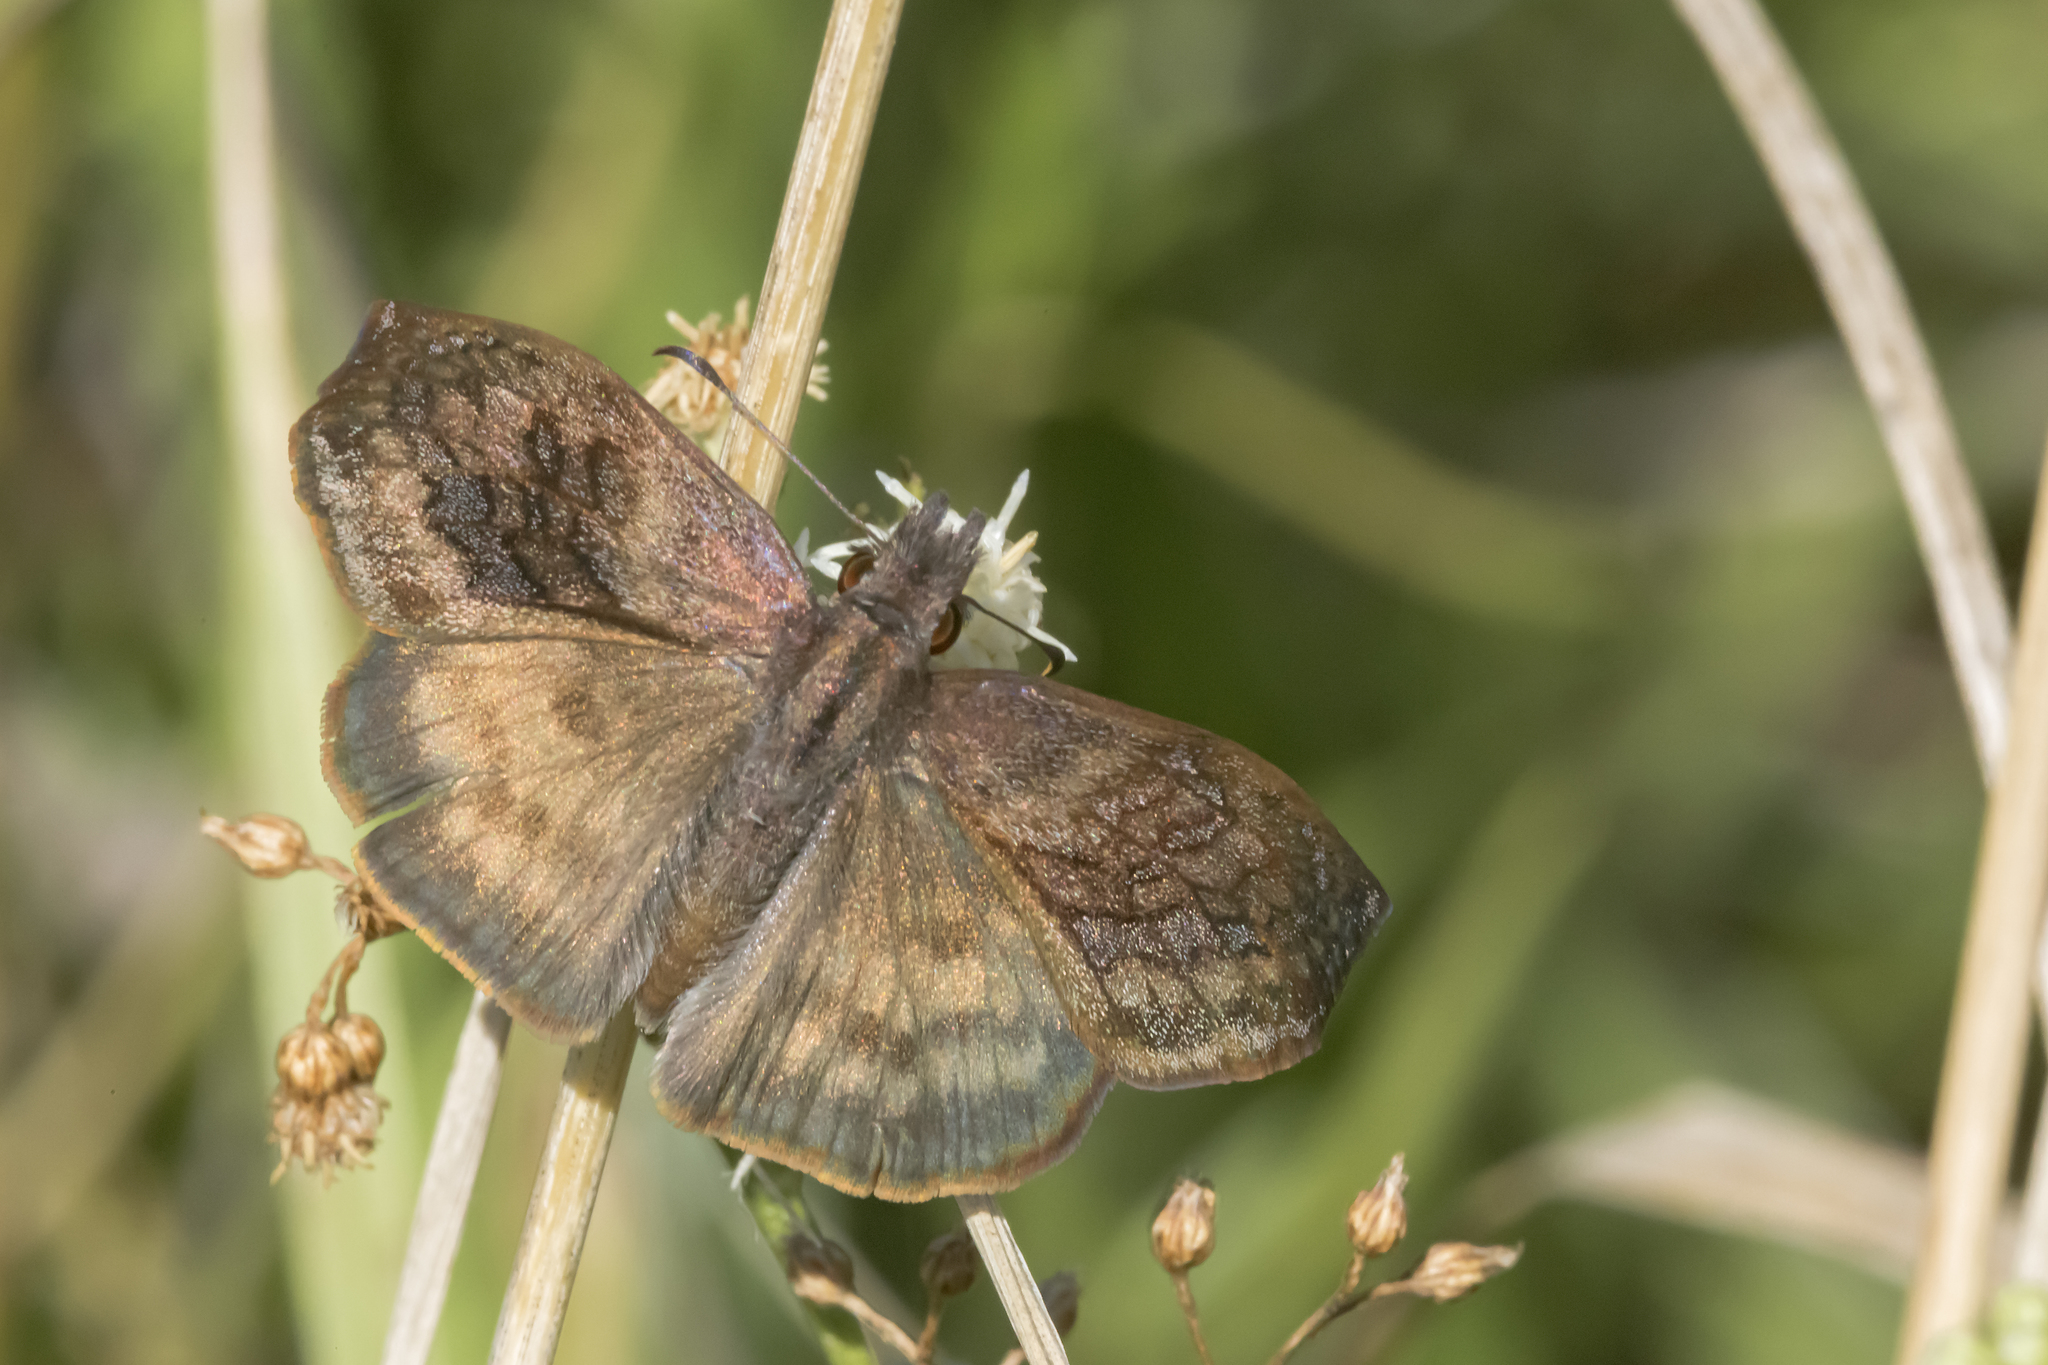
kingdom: Animalia
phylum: Arthropoda
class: Insecta
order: Lepidoptera
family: Hesperiidae
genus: Theagenes
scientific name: Theagenes dichrous
